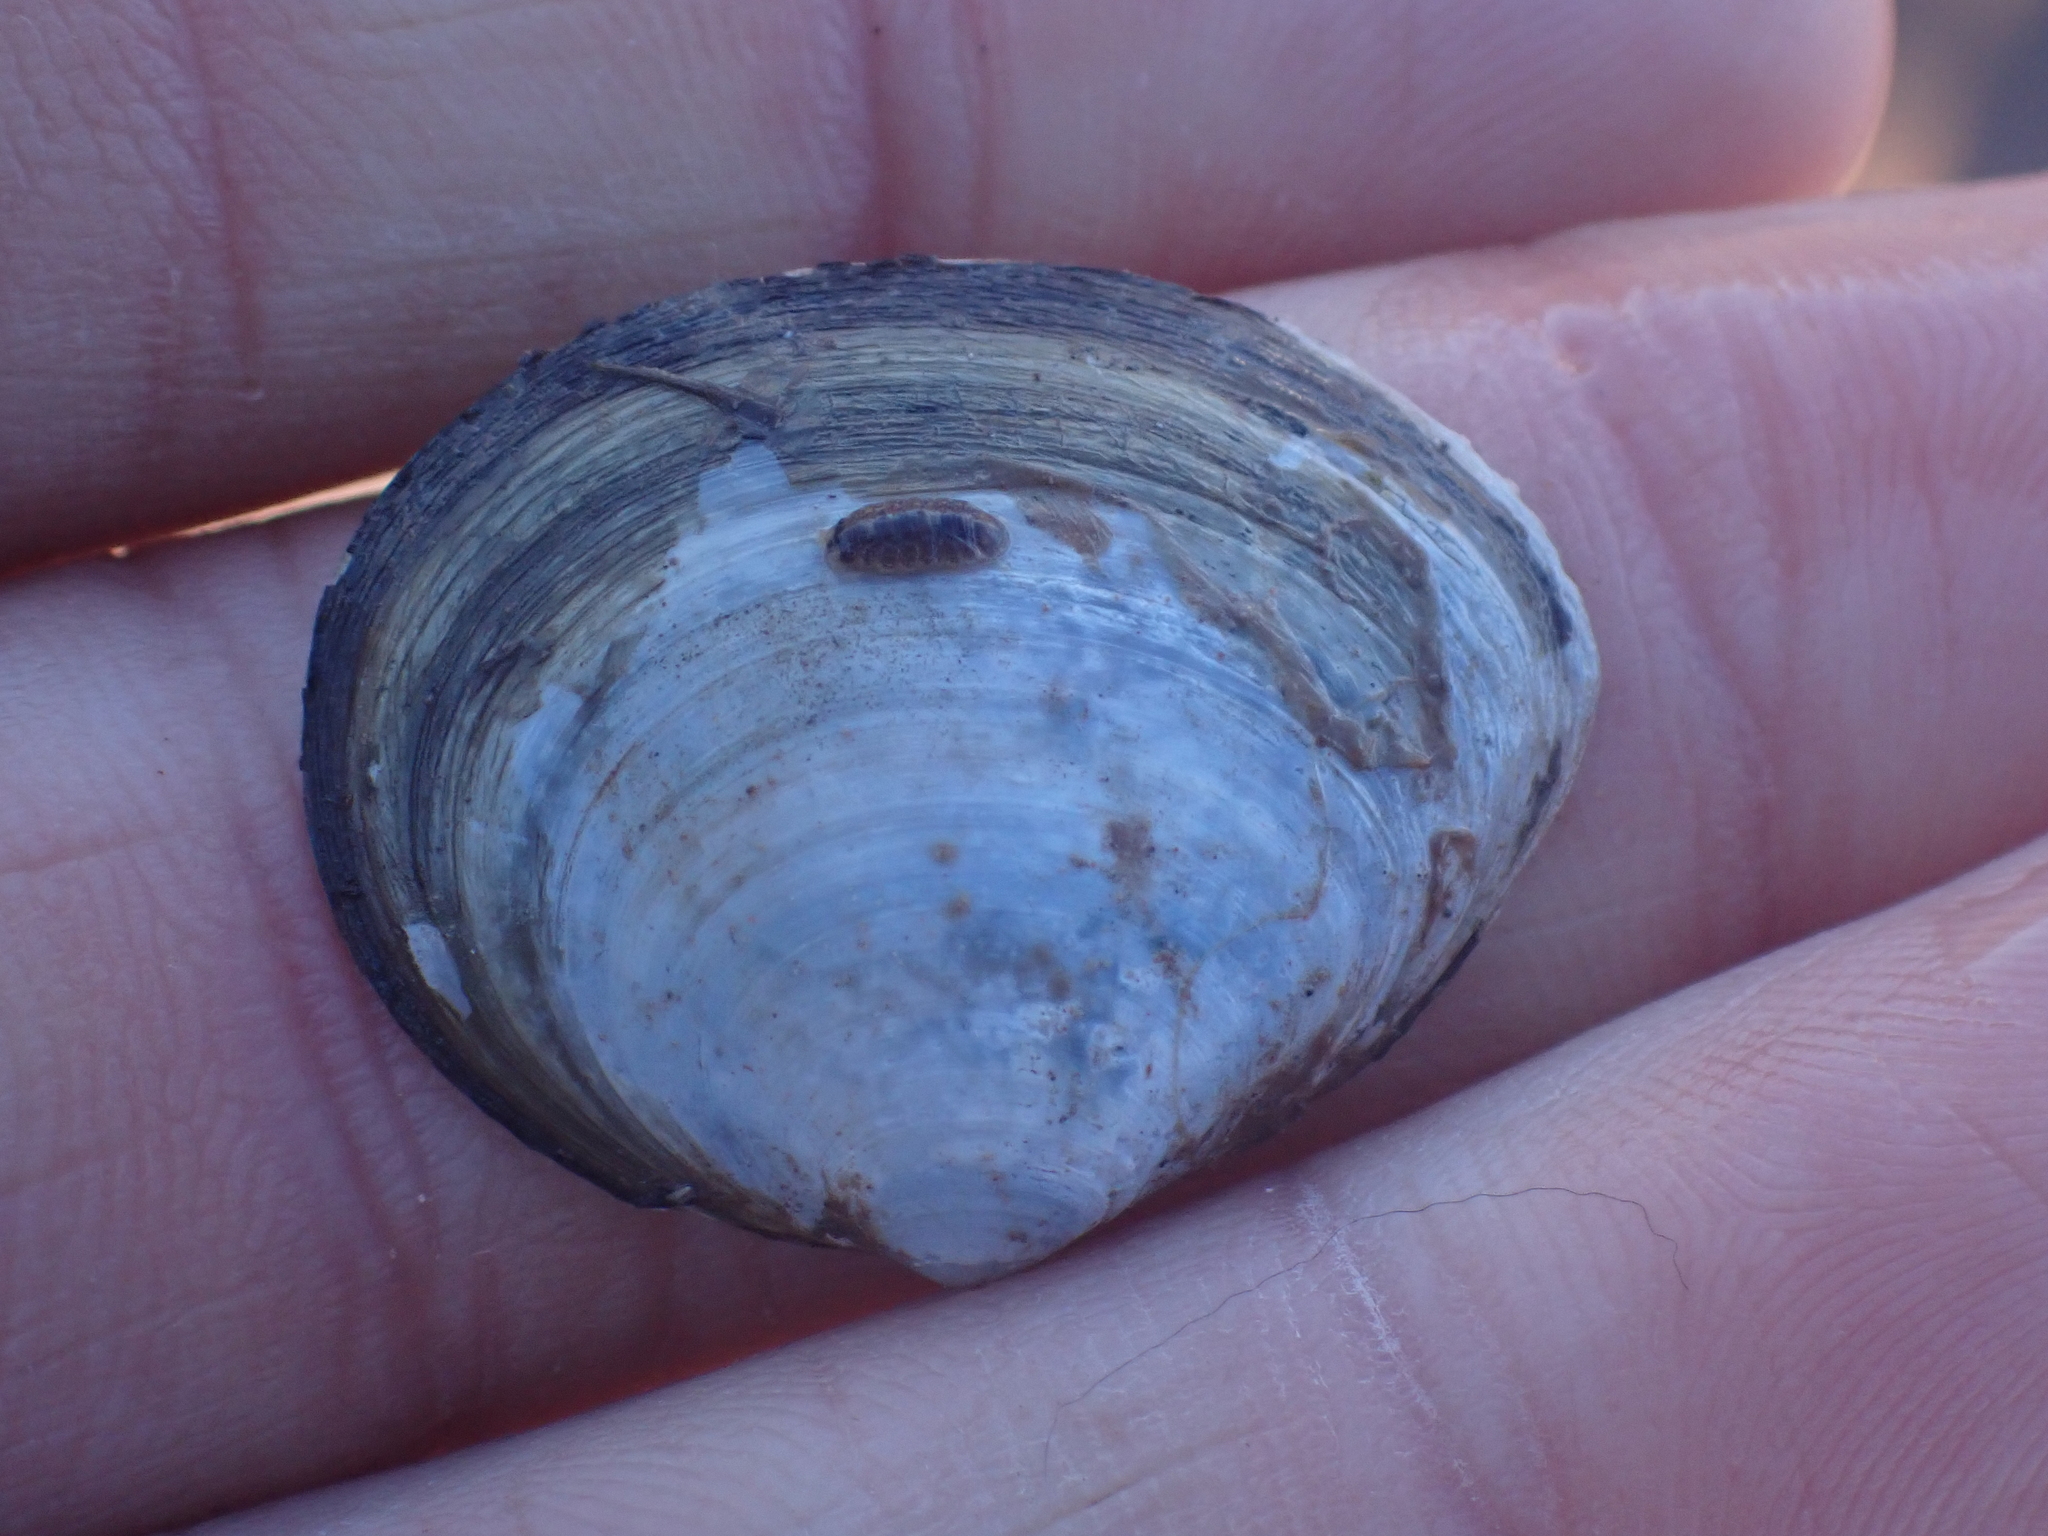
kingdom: Animalia
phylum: Arthropoda
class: Malacostraca
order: Isopoda
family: Janiridae
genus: Jaera
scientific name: Jaera
